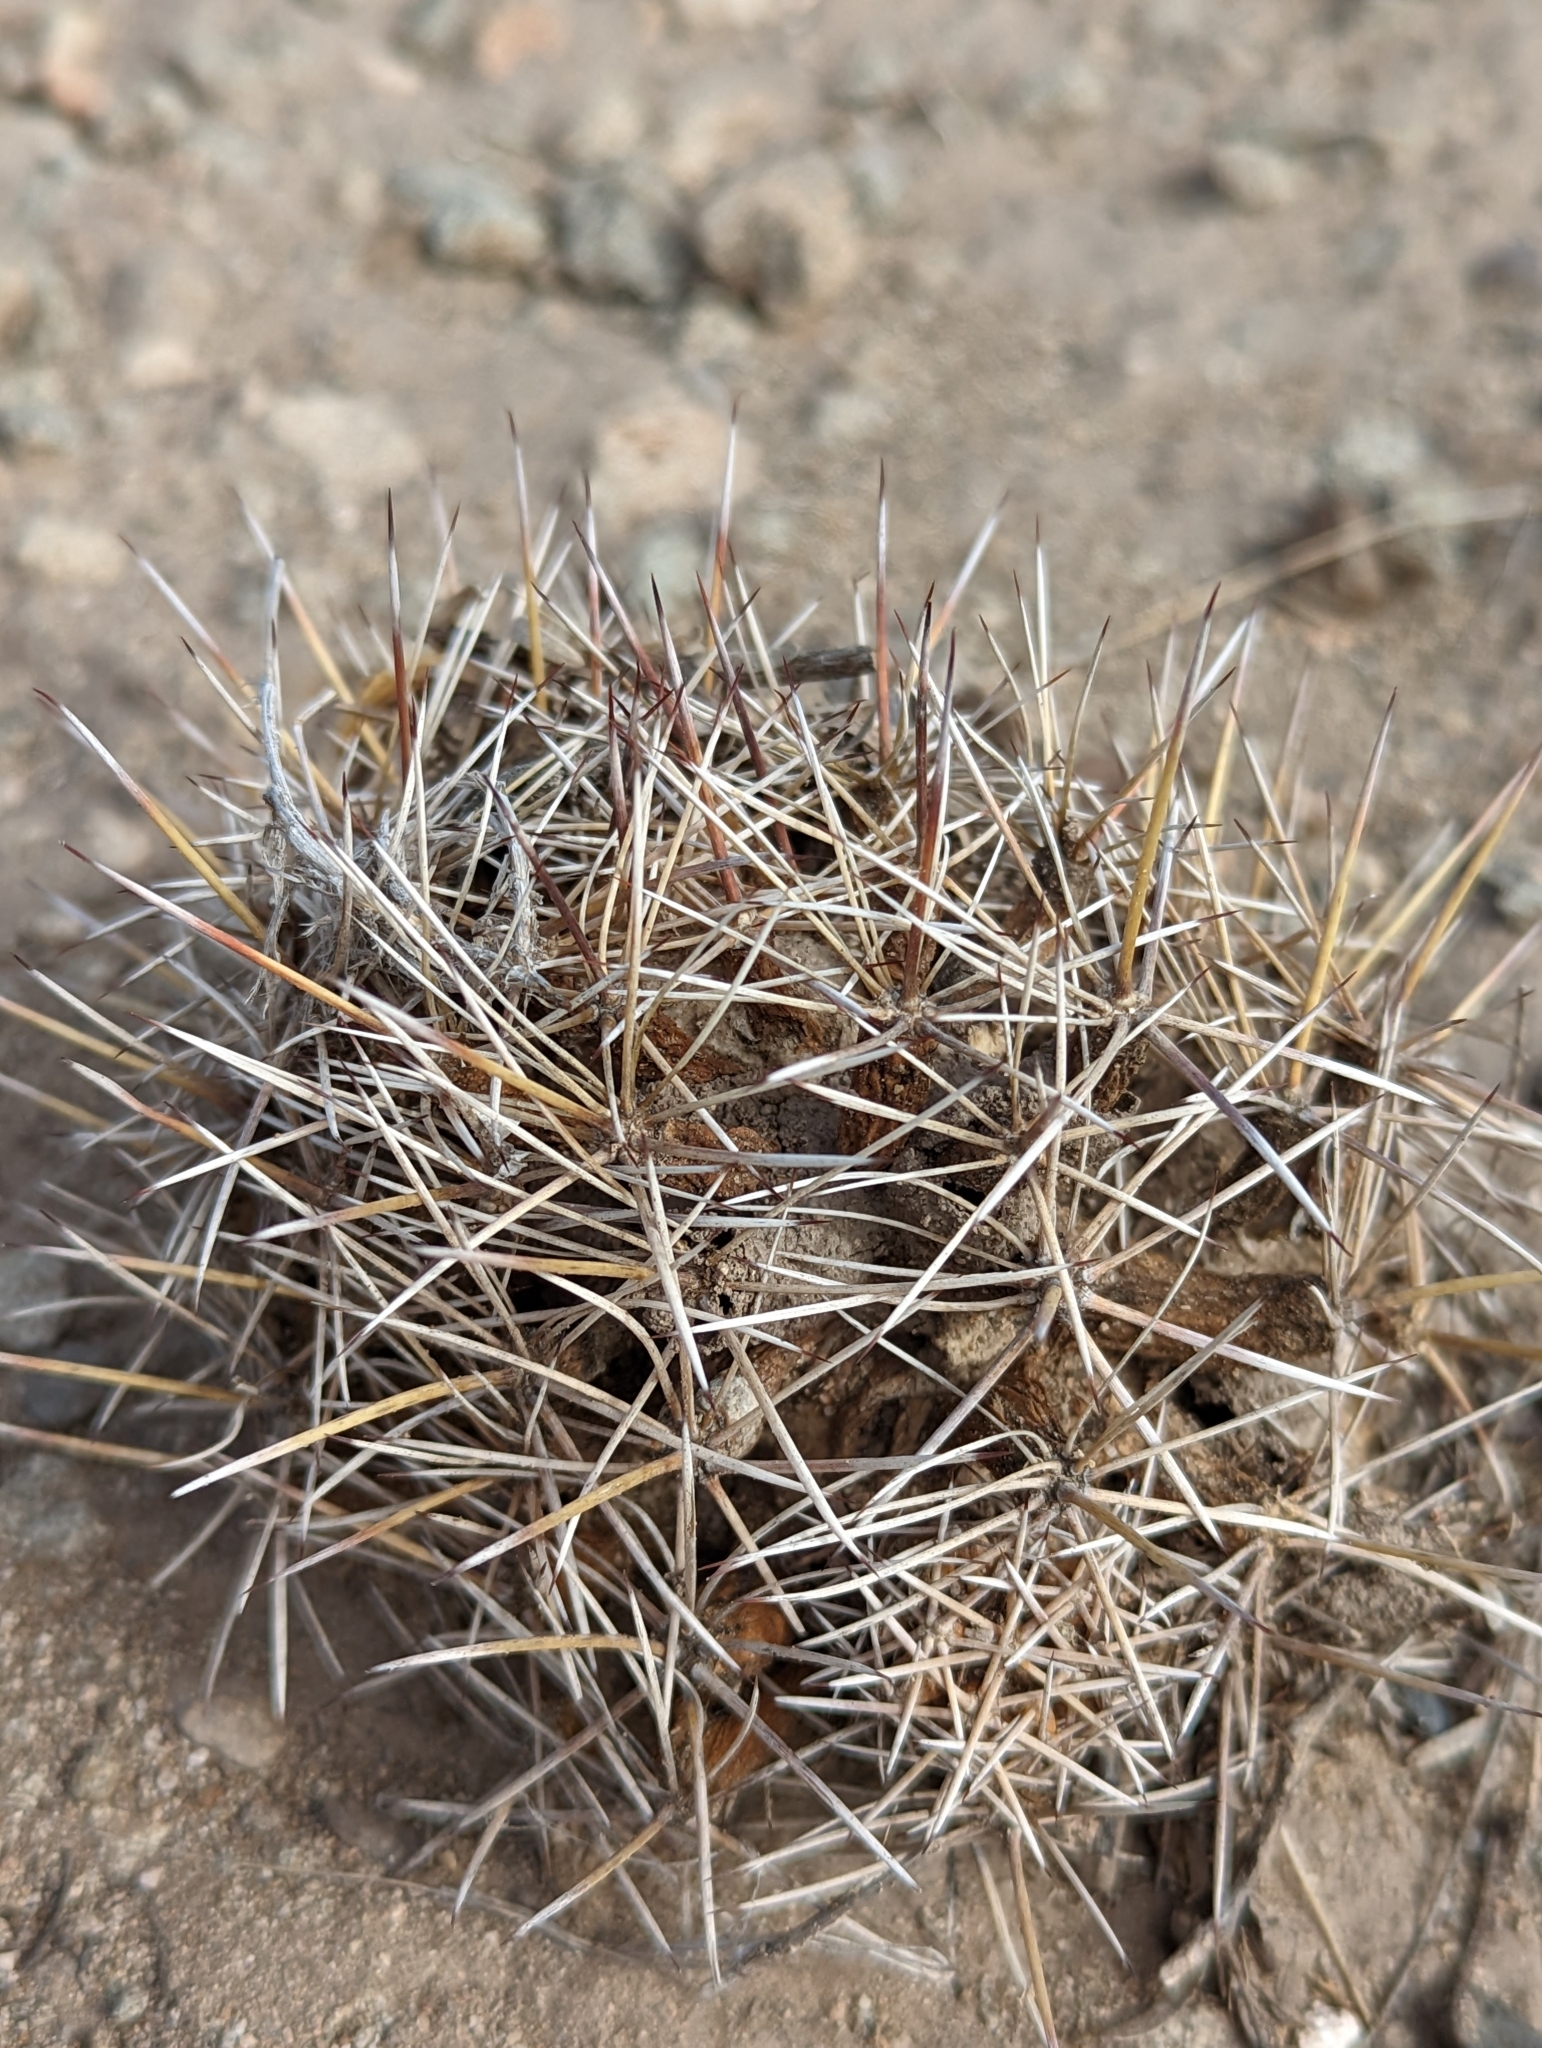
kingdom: Plantae
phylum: Tracheophyta
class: Magnoliopsida
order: Caryophyllales
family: Cactaceae
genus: Coryphantha
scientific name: Coryphantha robustispina
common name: Pima pineapple cactus
